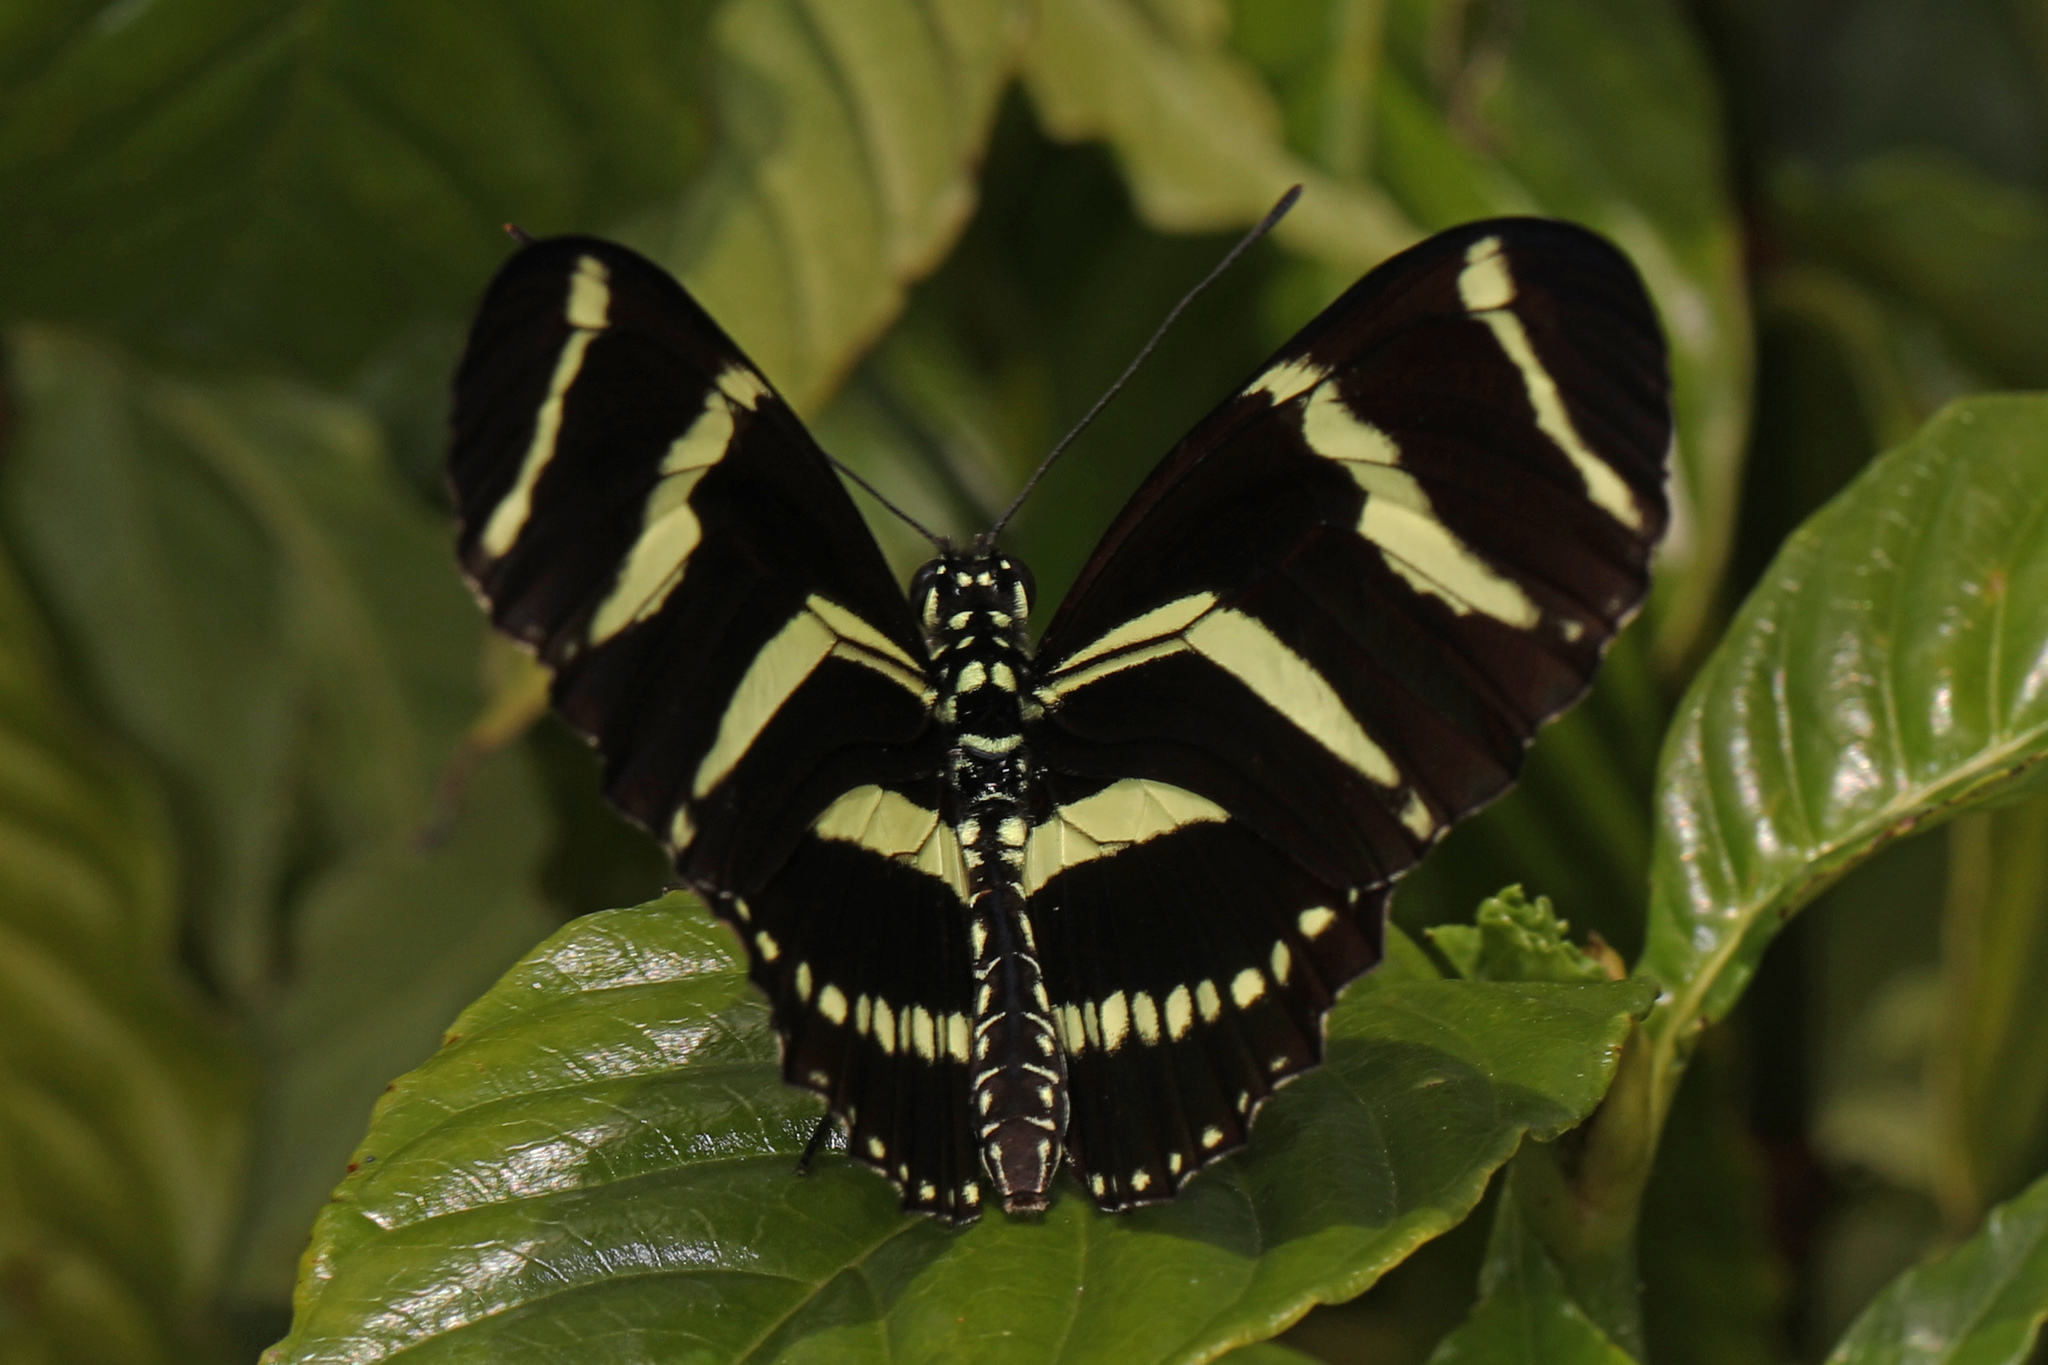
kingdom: Animalia
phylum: Arthropoda
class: Insecta
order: Lepidoptera
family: Nymphalidae
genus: Heliconius
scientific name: Heliconius charithonia
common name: Zebra long wing
